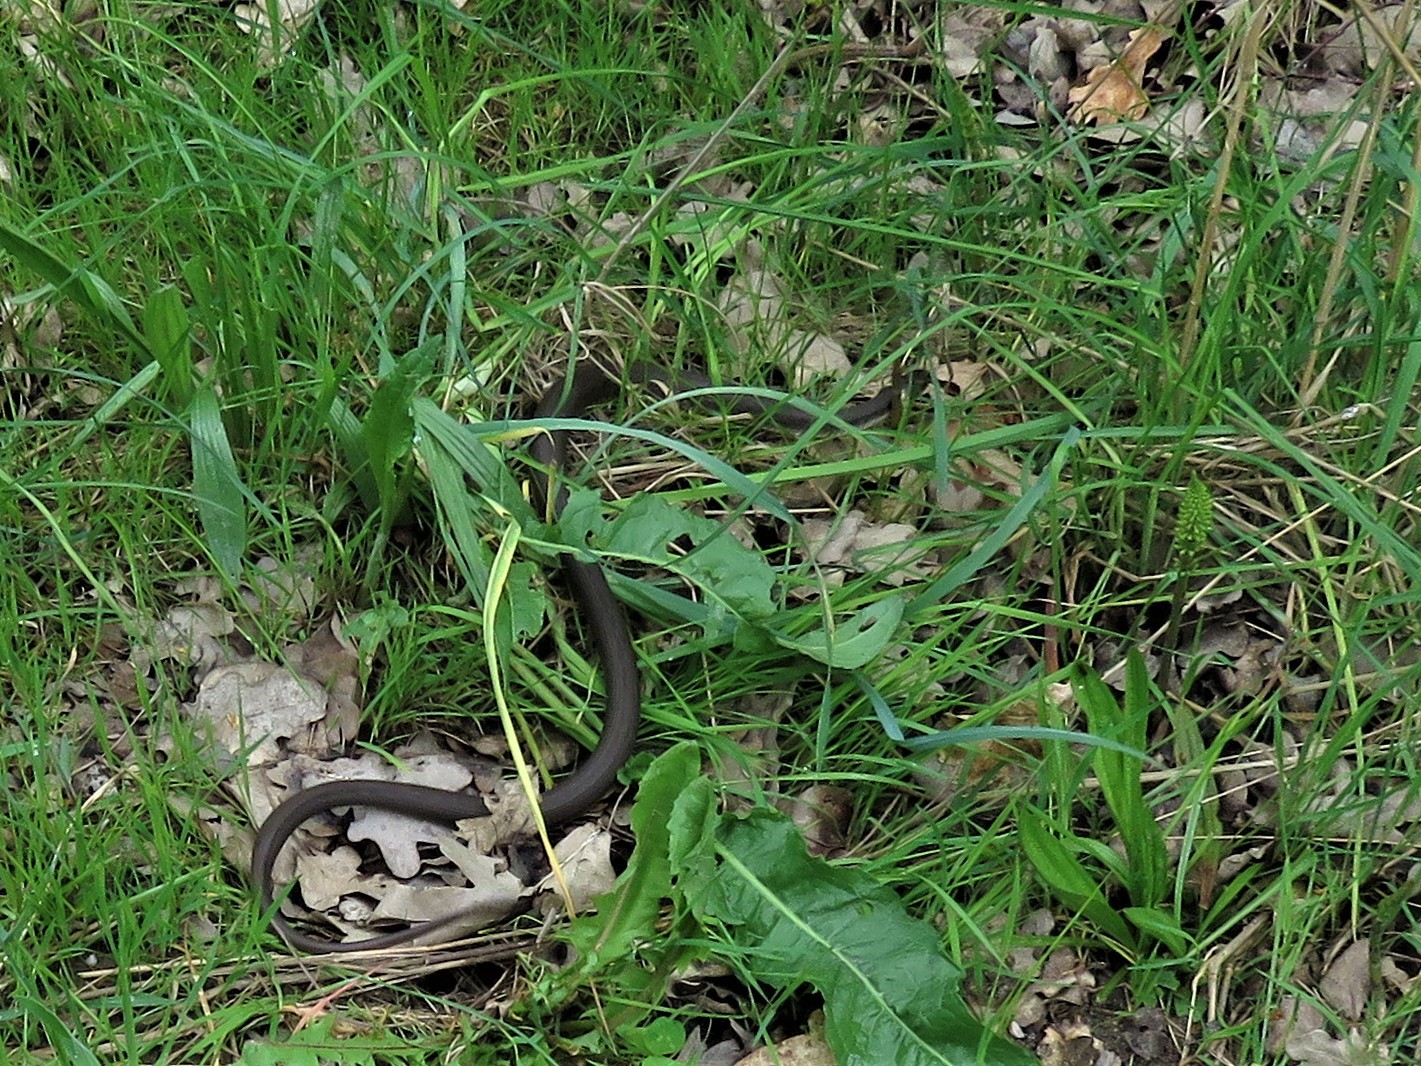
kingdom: Animalia
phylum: Chordata
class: Squamata
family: Colubridae
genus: Natrix
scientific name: Natrix natrix
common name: Grass snake
